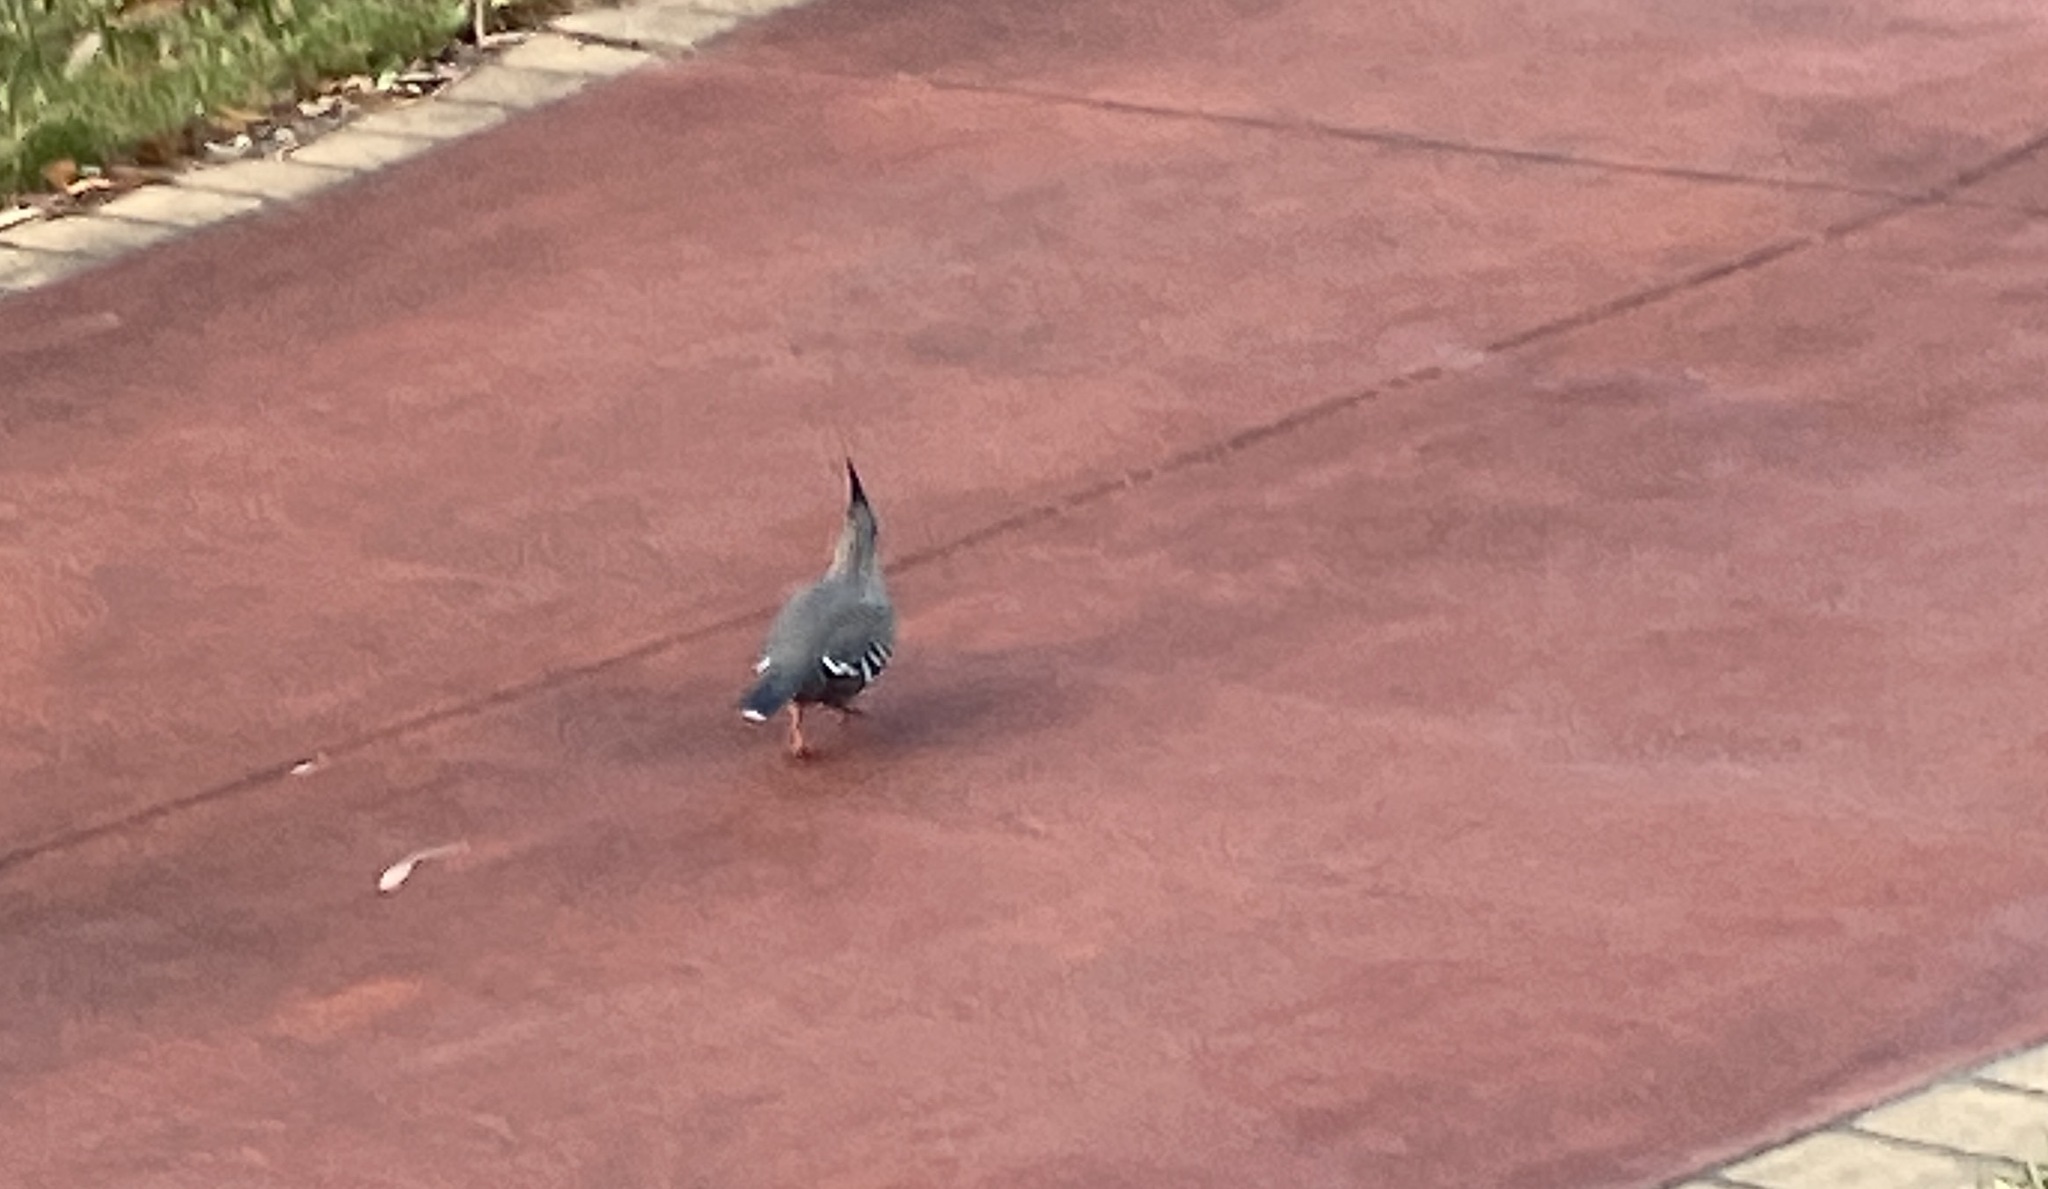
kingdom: Animalia
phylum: Chordata
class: Aves
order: Columbiformes
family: Columbidae
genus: Ocyphaps
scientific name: Ocyphaps lophotes
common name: Crested pigeon
